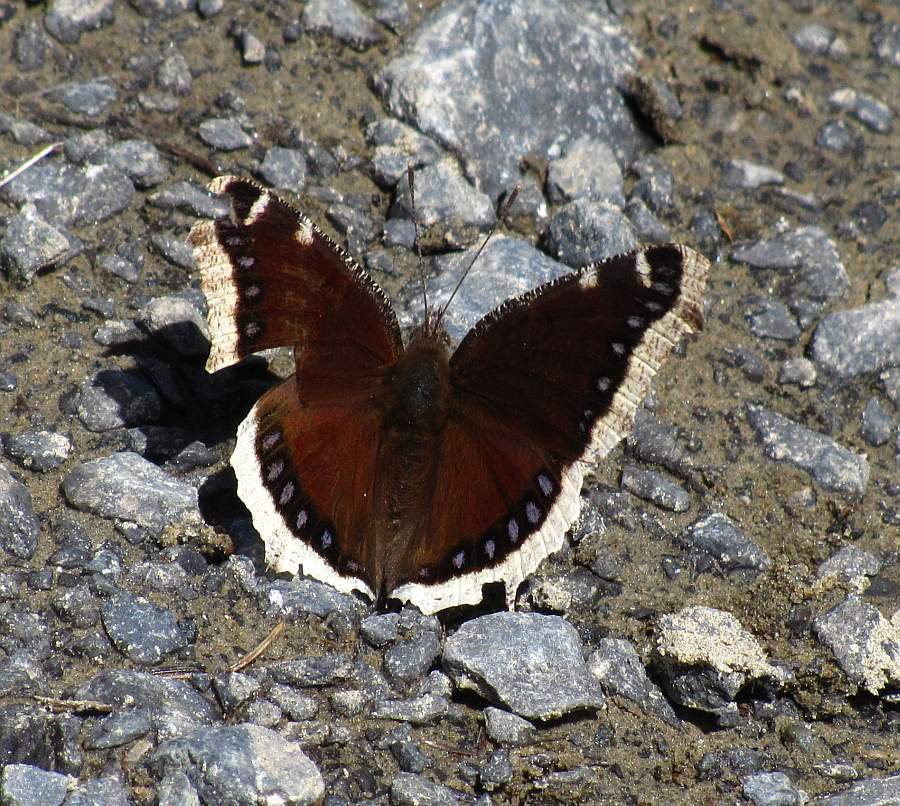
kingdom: Animalia
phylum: Arthropoda
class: Insecta
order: Lepidoptera
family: Nymphalidae
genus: Nymphalis
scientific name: Nymphalis antiopa
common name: Camberwell beauty
